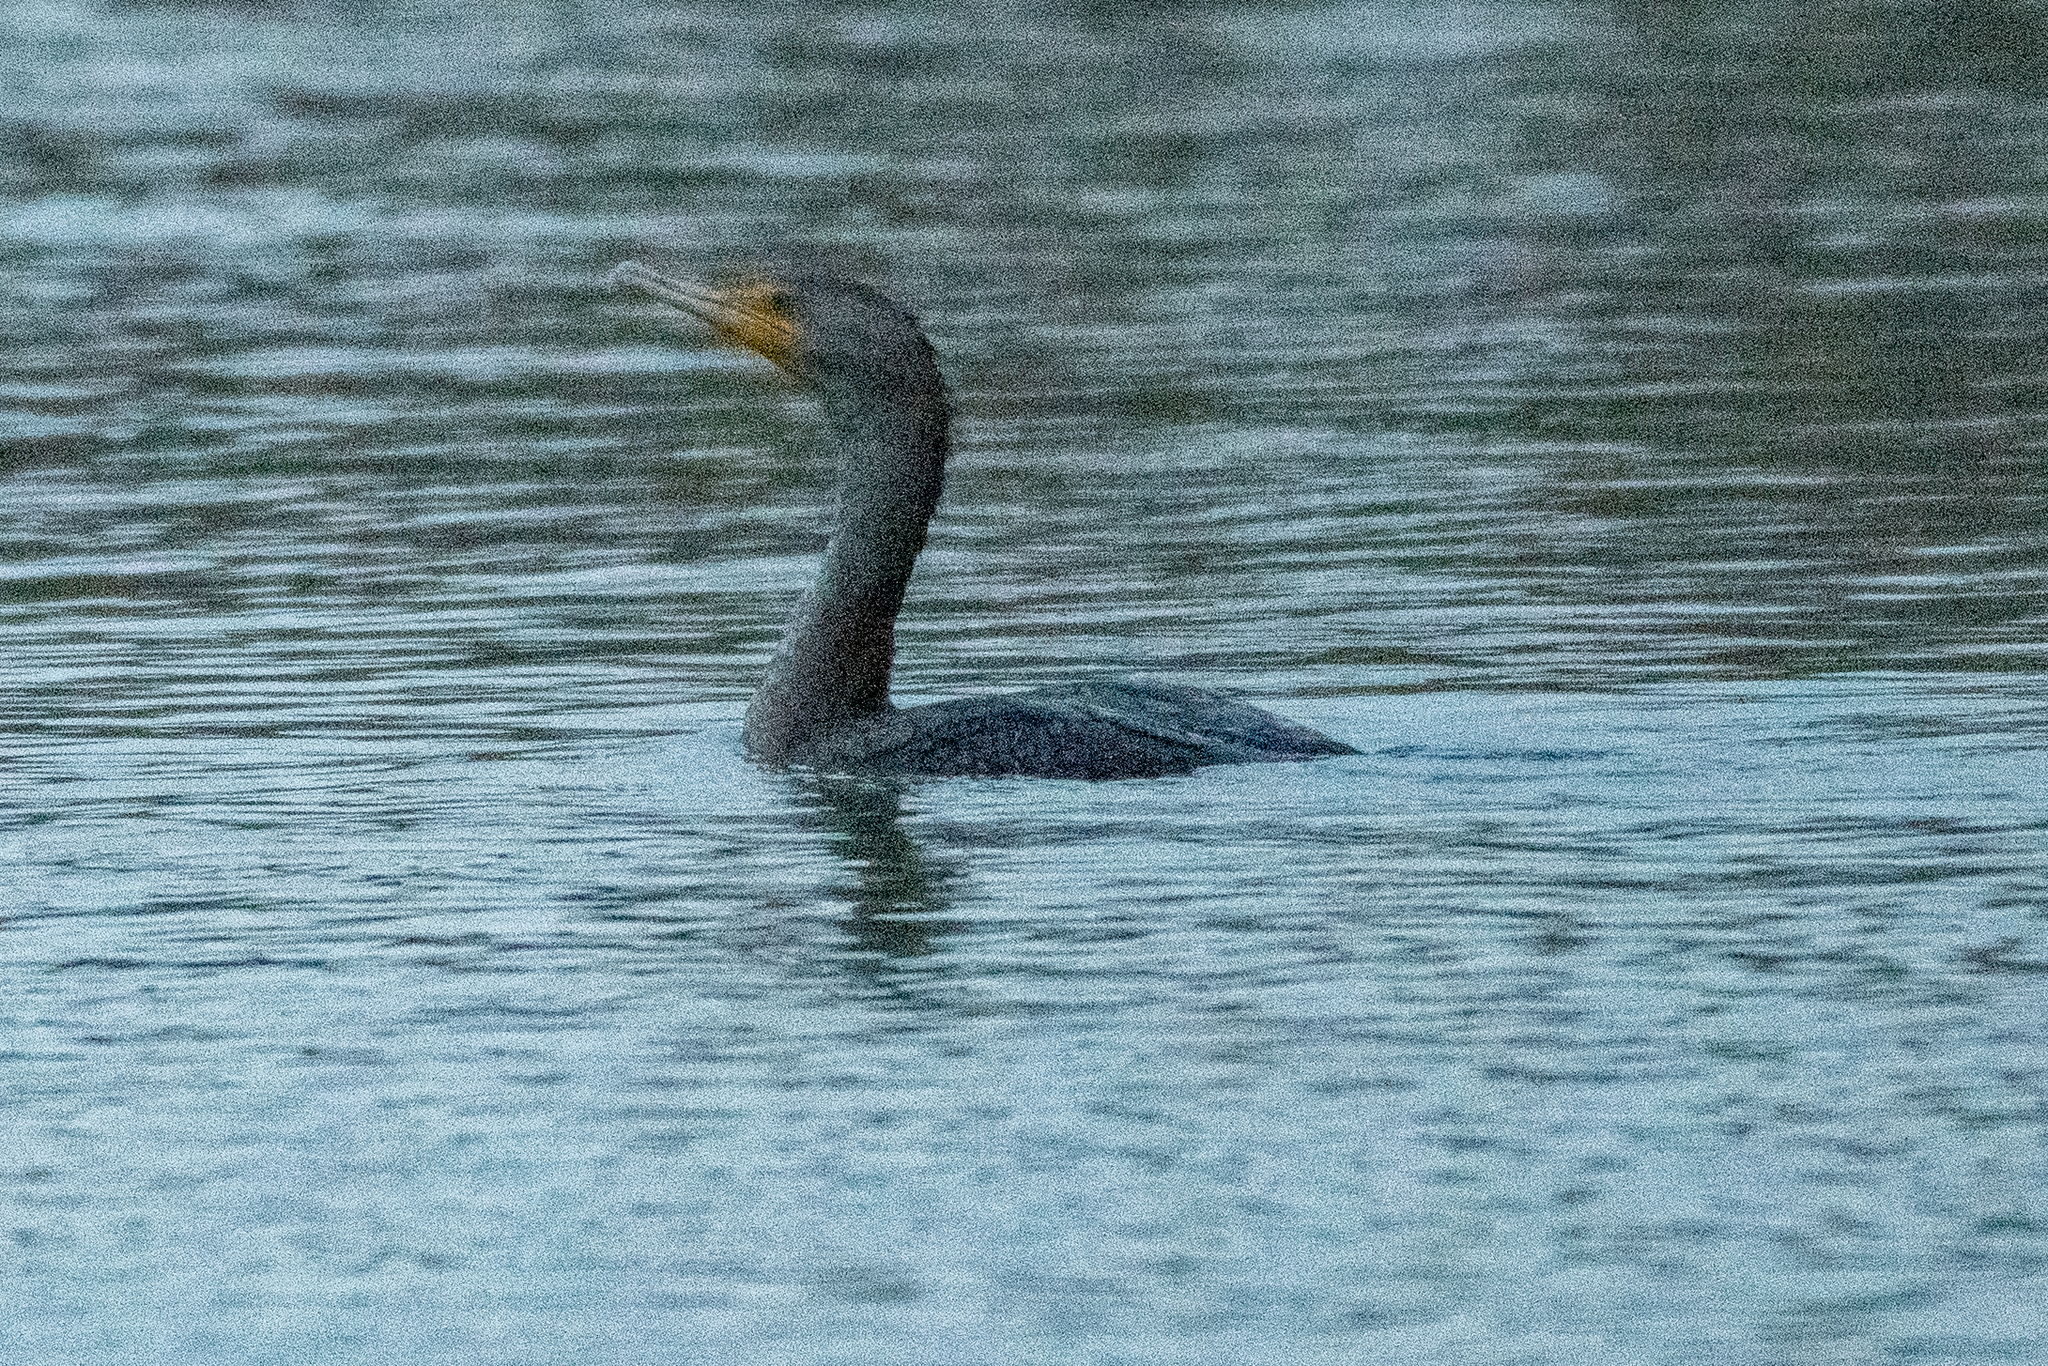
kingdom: Animalia
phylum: Chordata
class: Aves
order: Suliformes
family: Phalacrocoracidae
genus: Phalacrocorax
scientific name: Phalacrocorax auritus
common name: Double-crested cormorant
